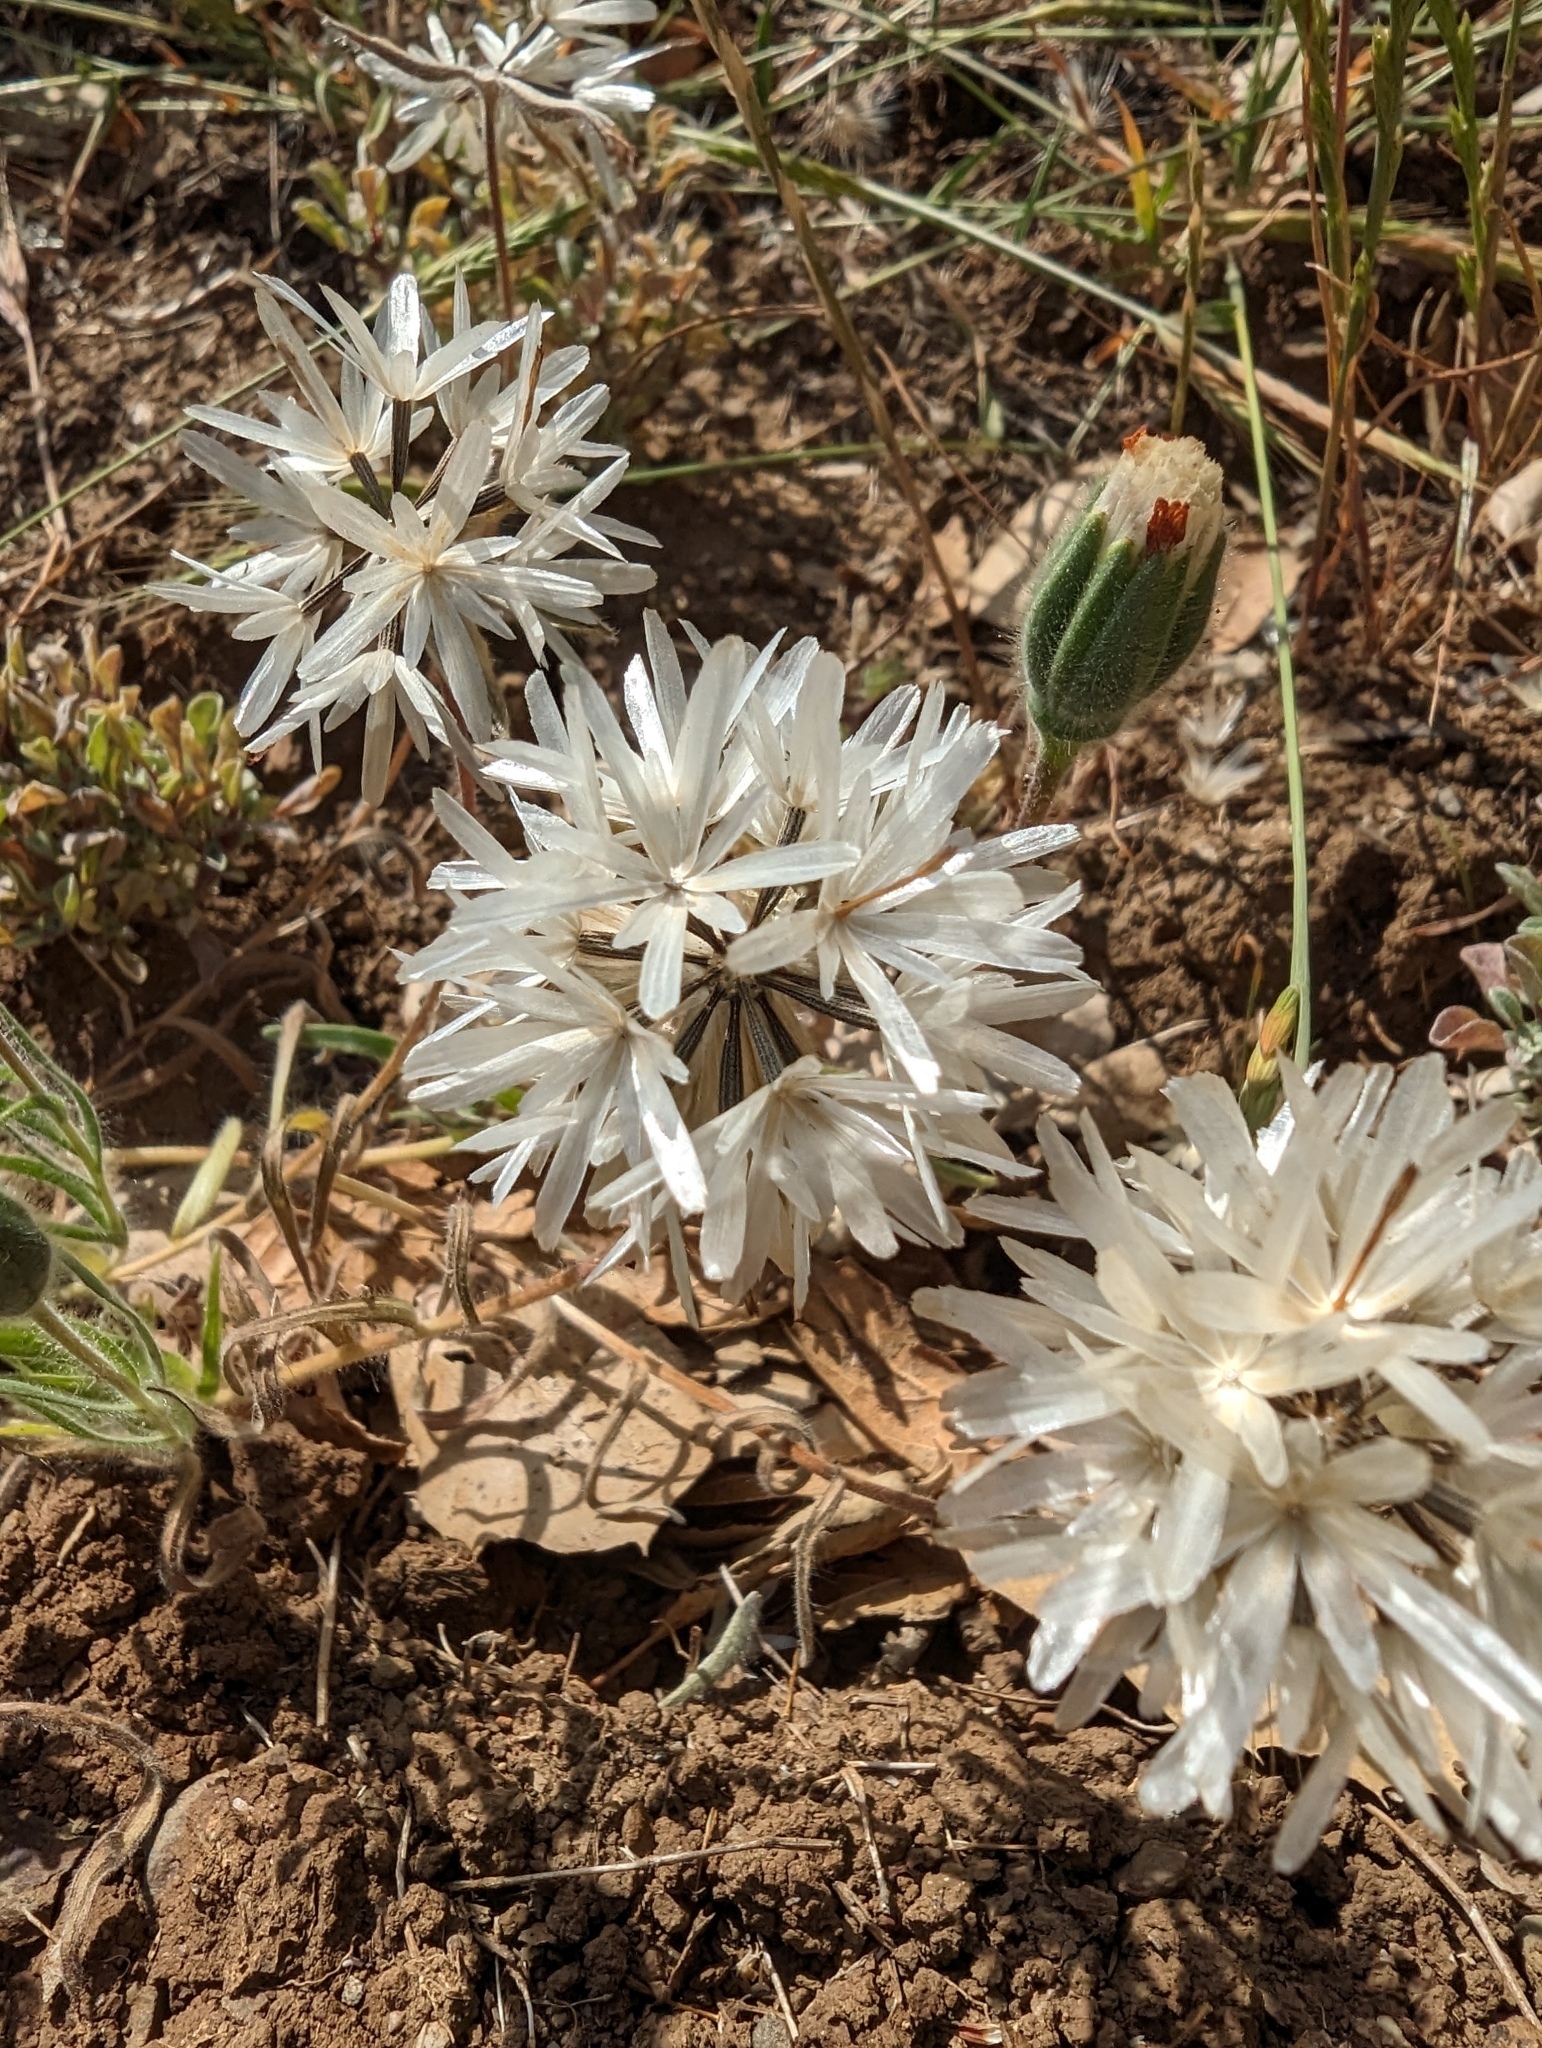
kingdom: Plantae
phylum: Tracheophyta
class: Magnoliopsida
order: Asterales
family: Asteraceae
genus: Achyrachaena
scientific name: Achyrachaena mollis
